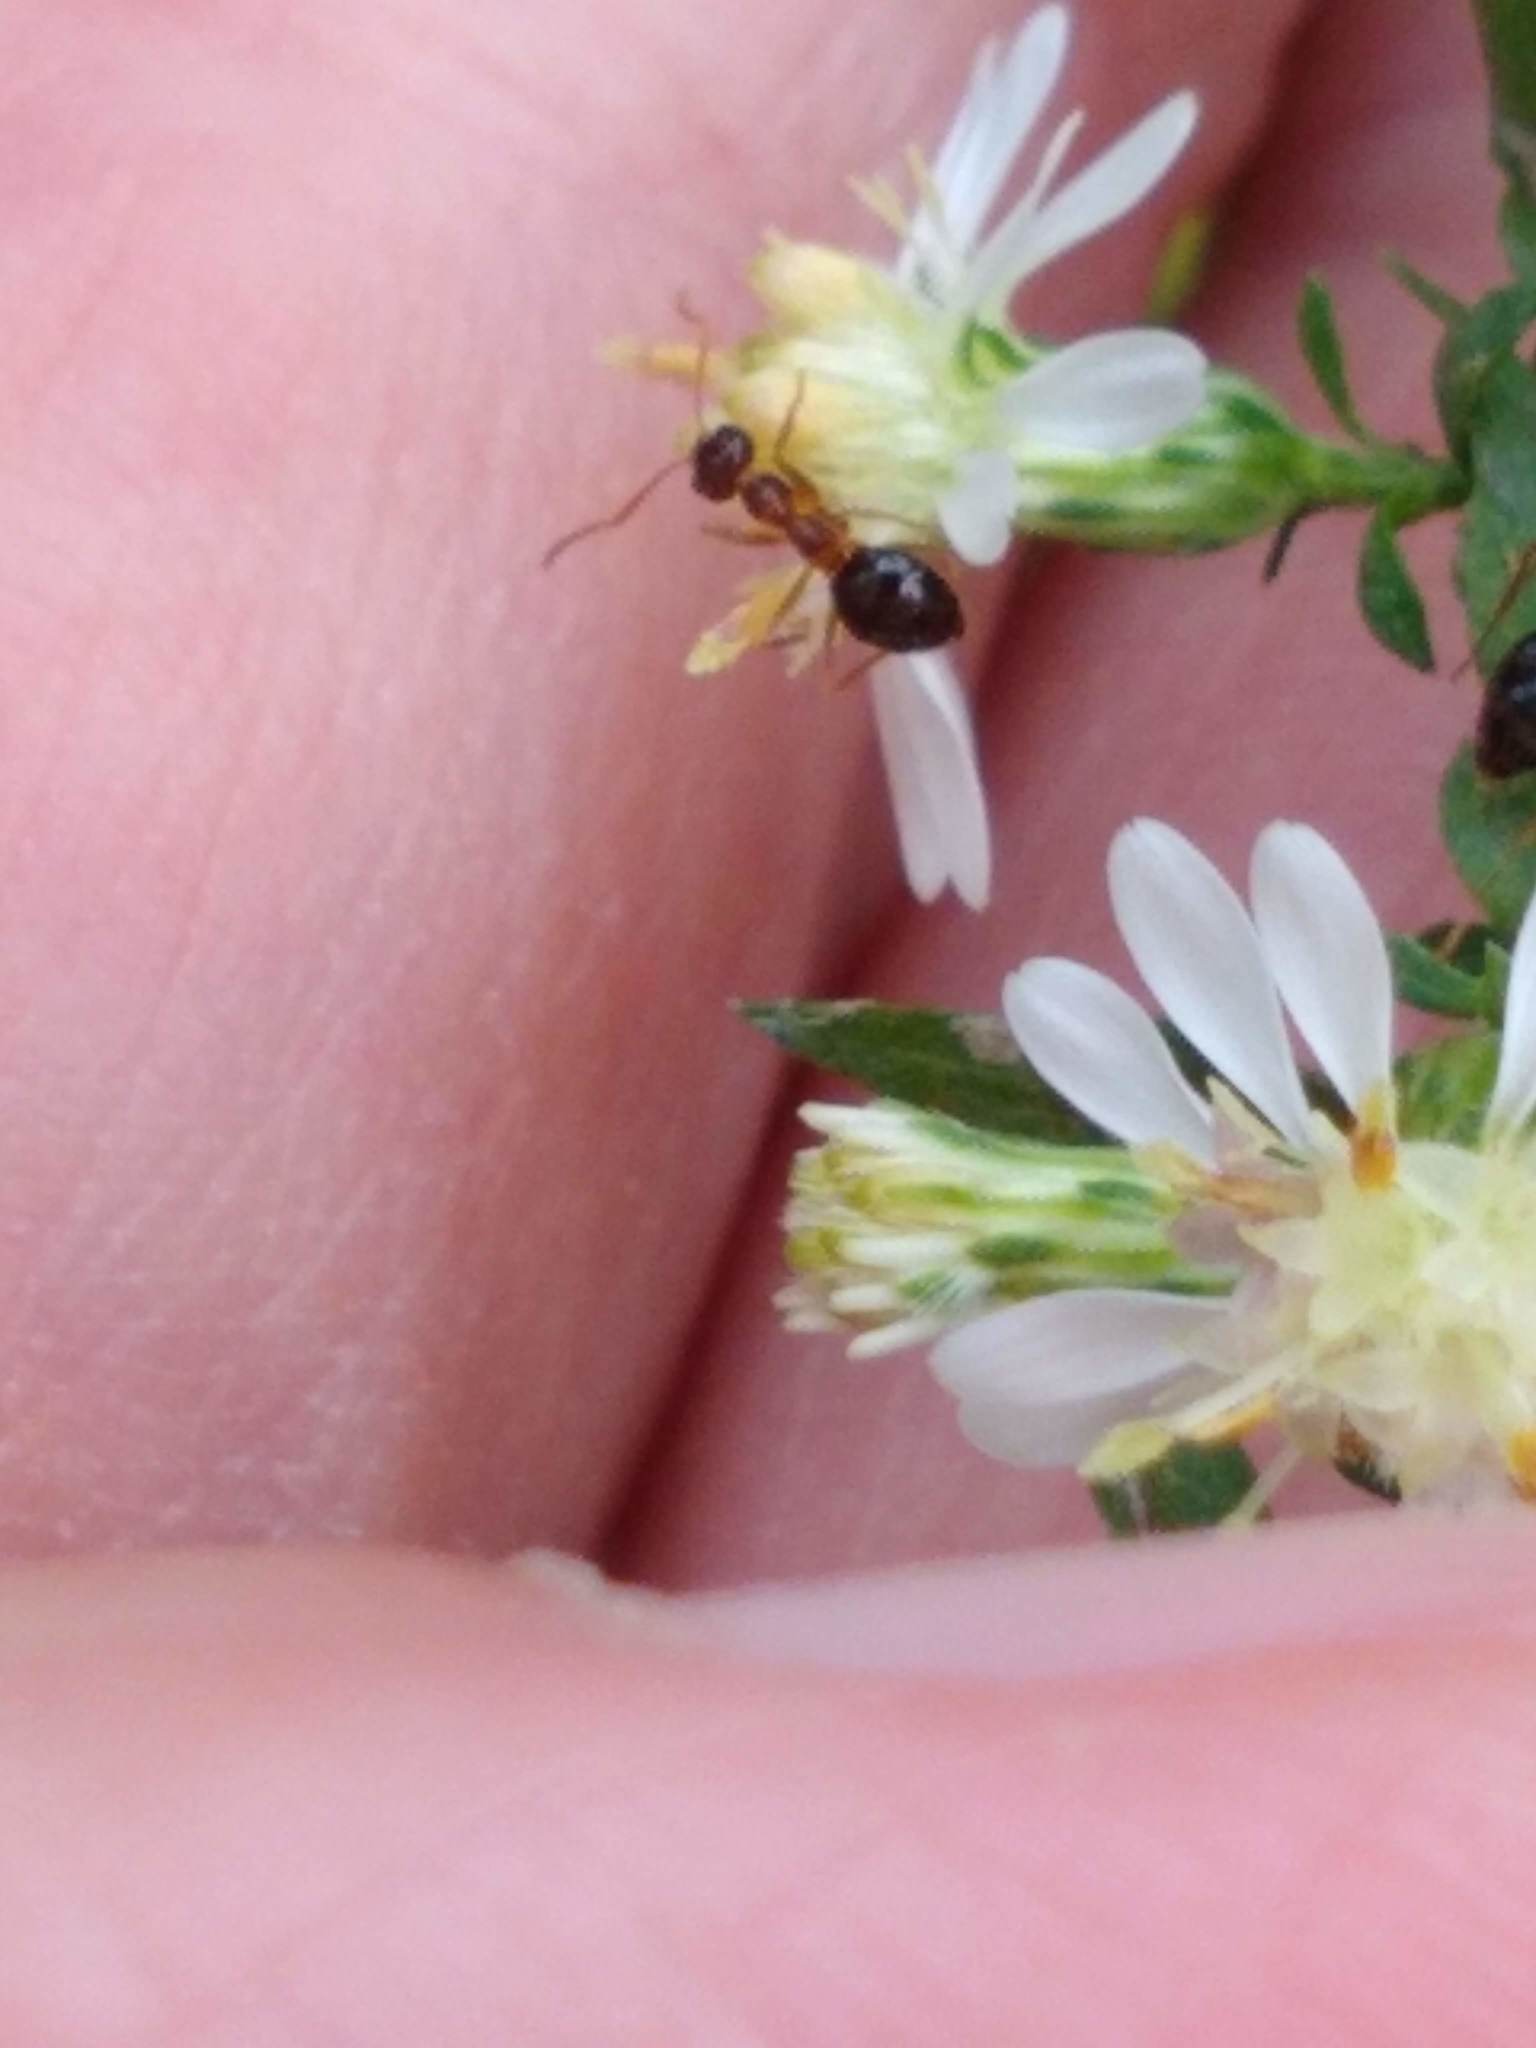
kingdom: Animalia
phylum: Arthropoda
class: Insecta
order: Hymenoptera
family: Formicidae
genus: Prenolepis
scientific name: Prenolepis imparis
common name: Small honey ant
